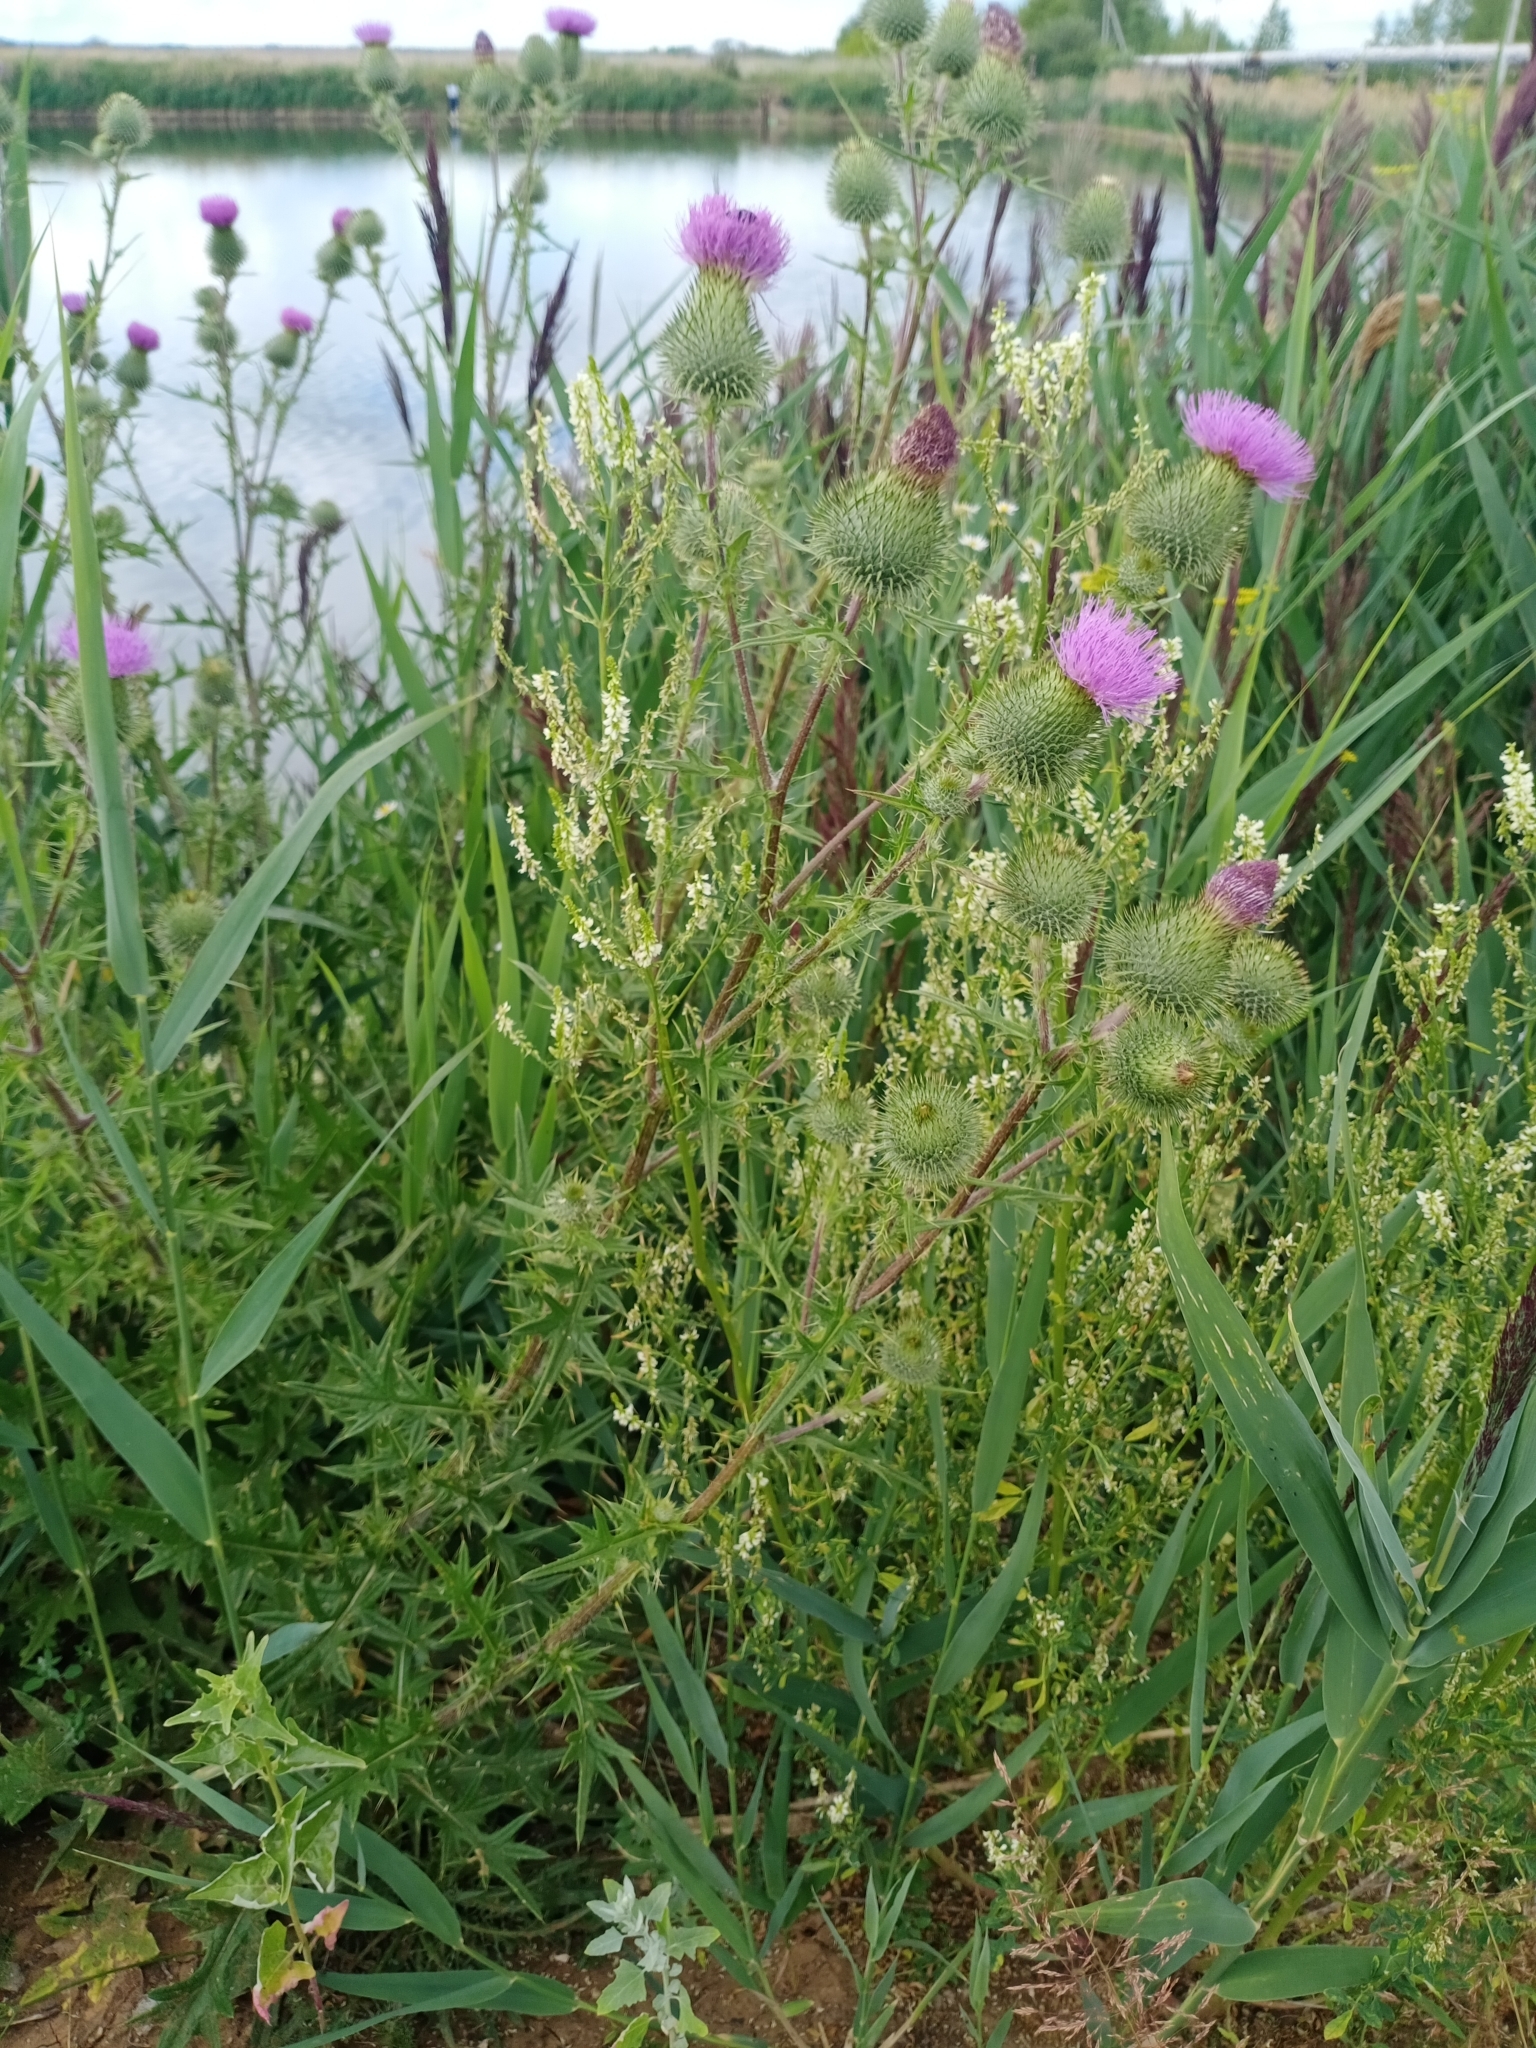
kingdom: Plantae
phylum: Tracheophyta
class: Magnoliopsida
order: Asterales
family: Asteraceae
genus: Cirsium
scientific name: Cirsium vulgare
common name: Bull thistle
